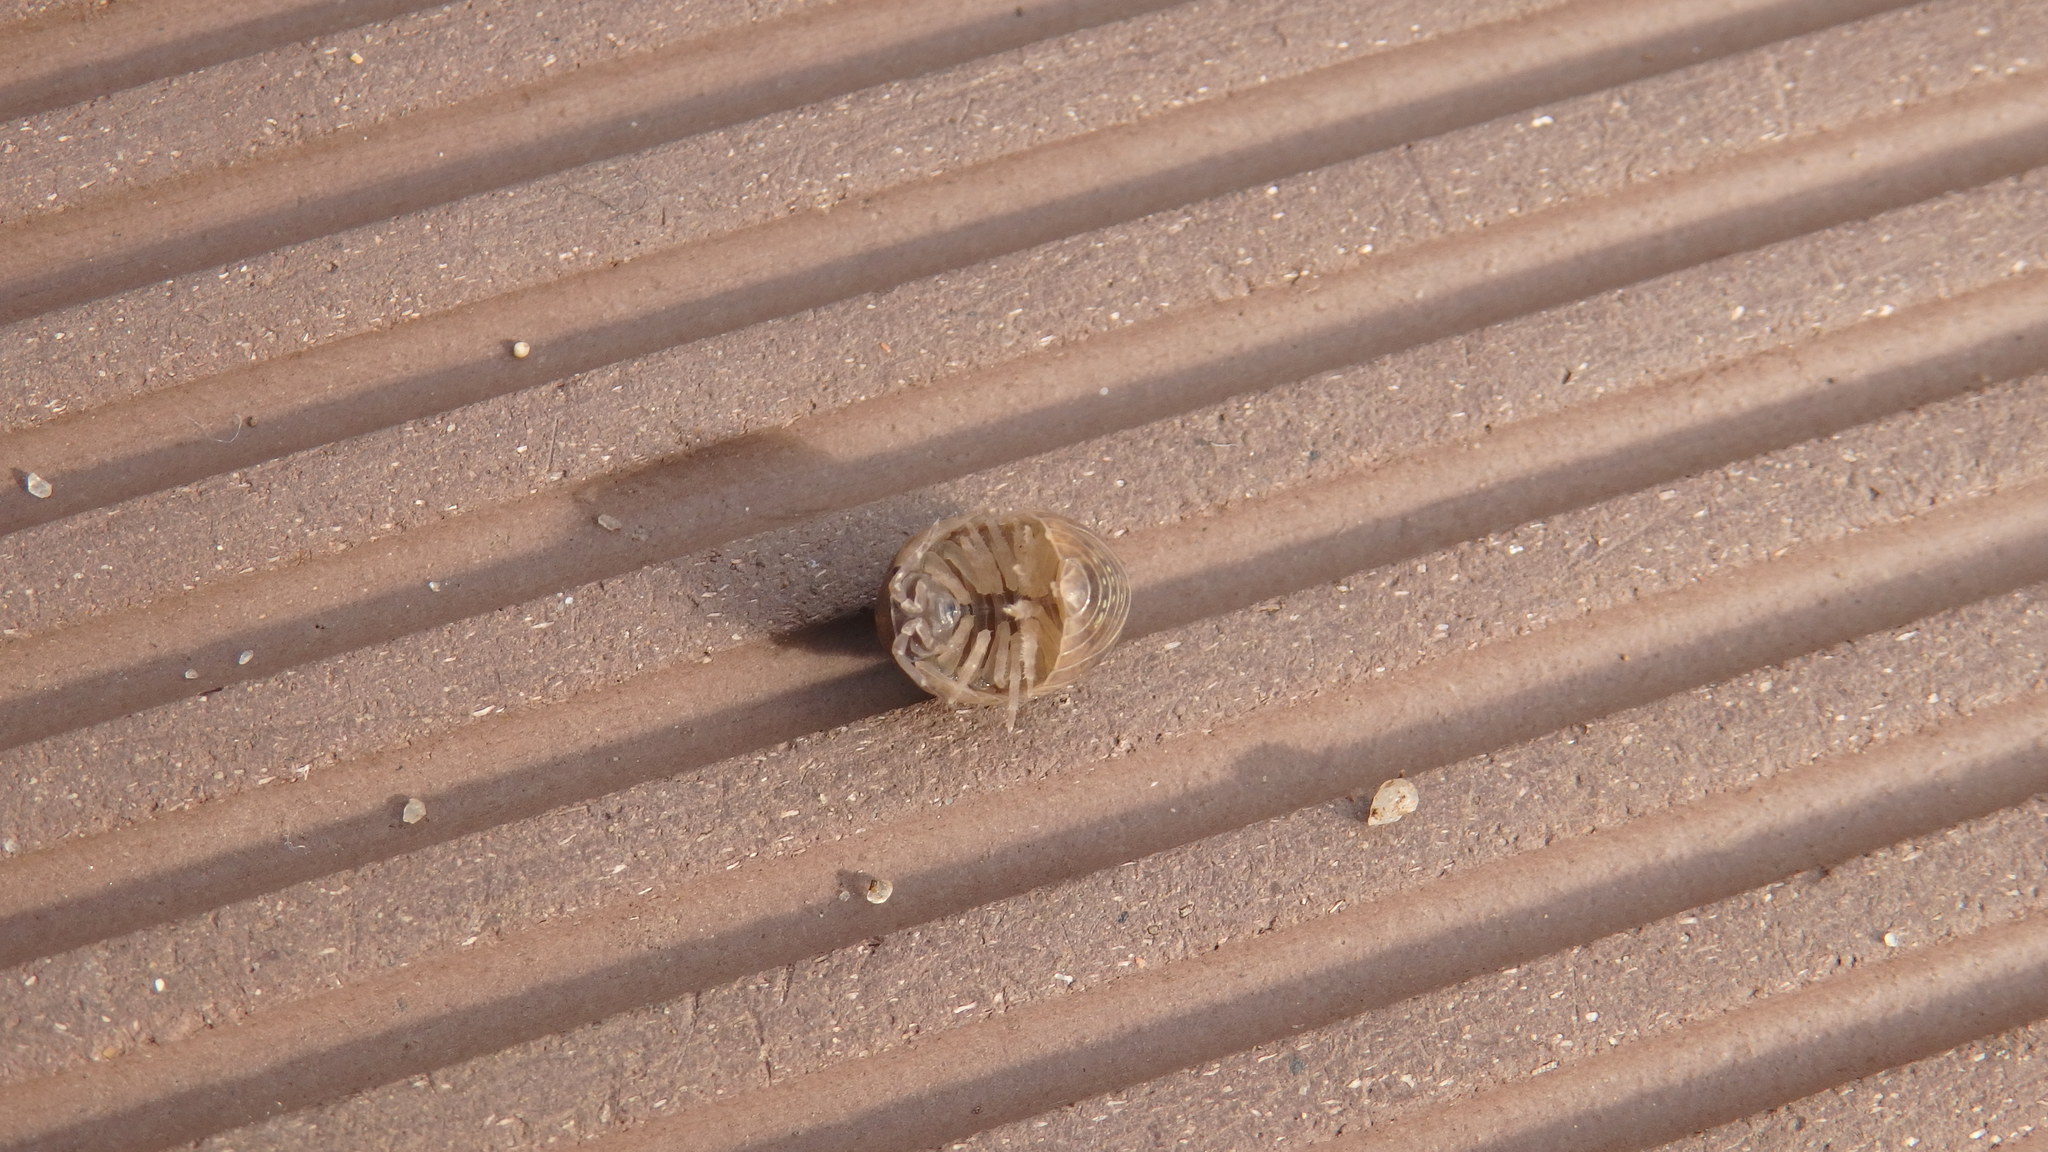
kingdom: Animalia
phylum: Arthropoda
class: Malacostraca
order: Isopoda
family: Armadillidiidae
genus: Armadillidium
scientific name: Armadillidium vulgare
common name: Common pill woodlouse
